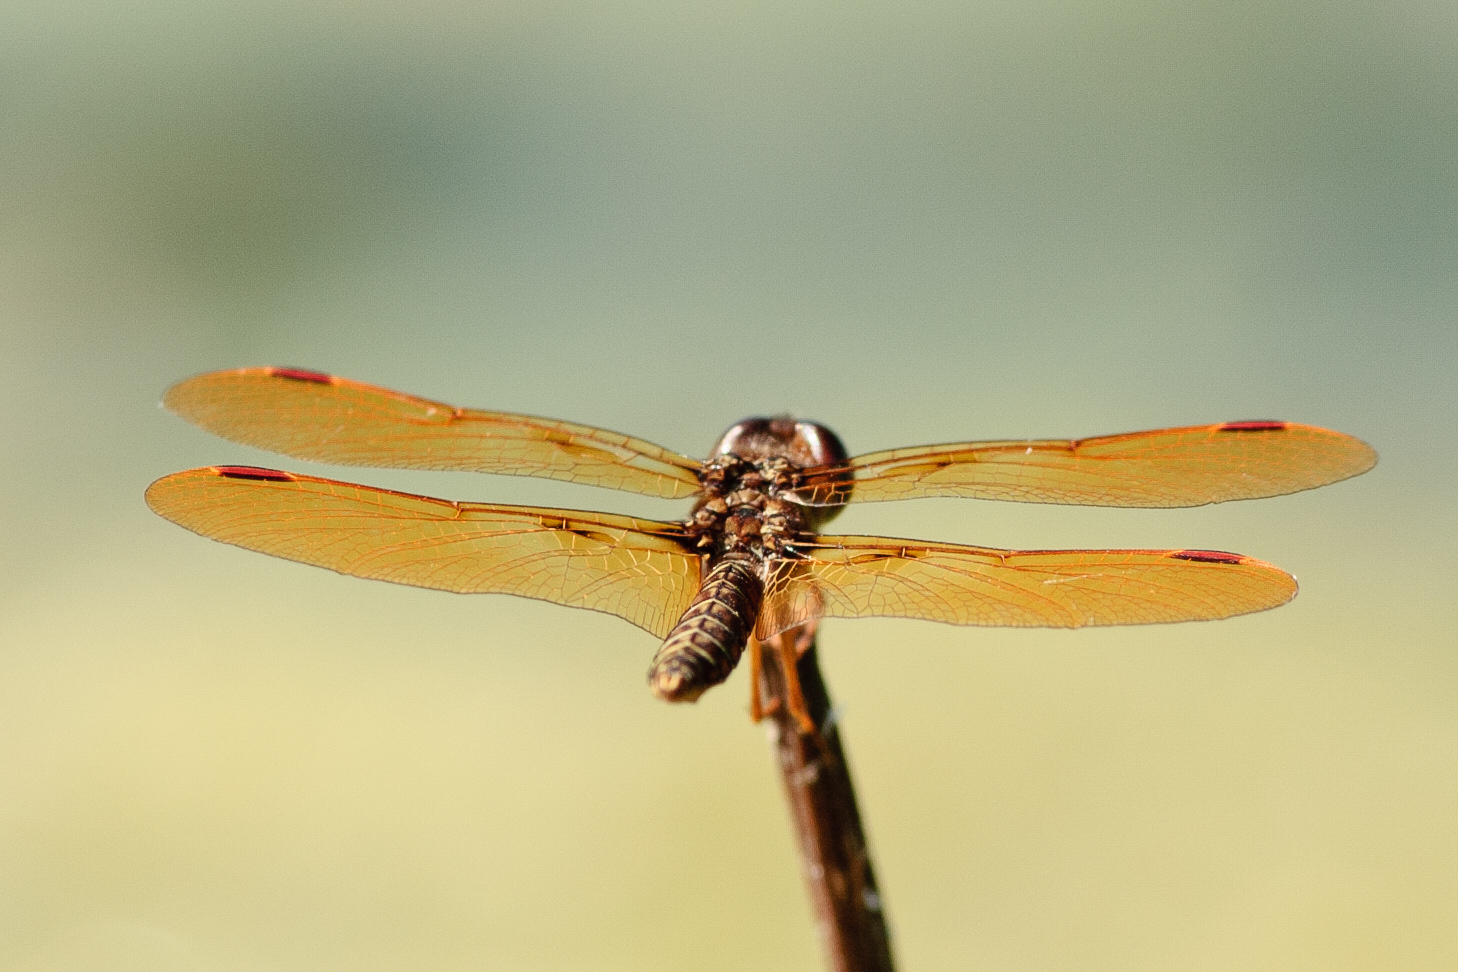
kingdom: Animalia
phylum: Arthropoda
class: Insecta
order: Odonata
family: Libellulidae
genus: Perithemis
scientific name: Perithemis tenera
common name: Eastern amberwing
